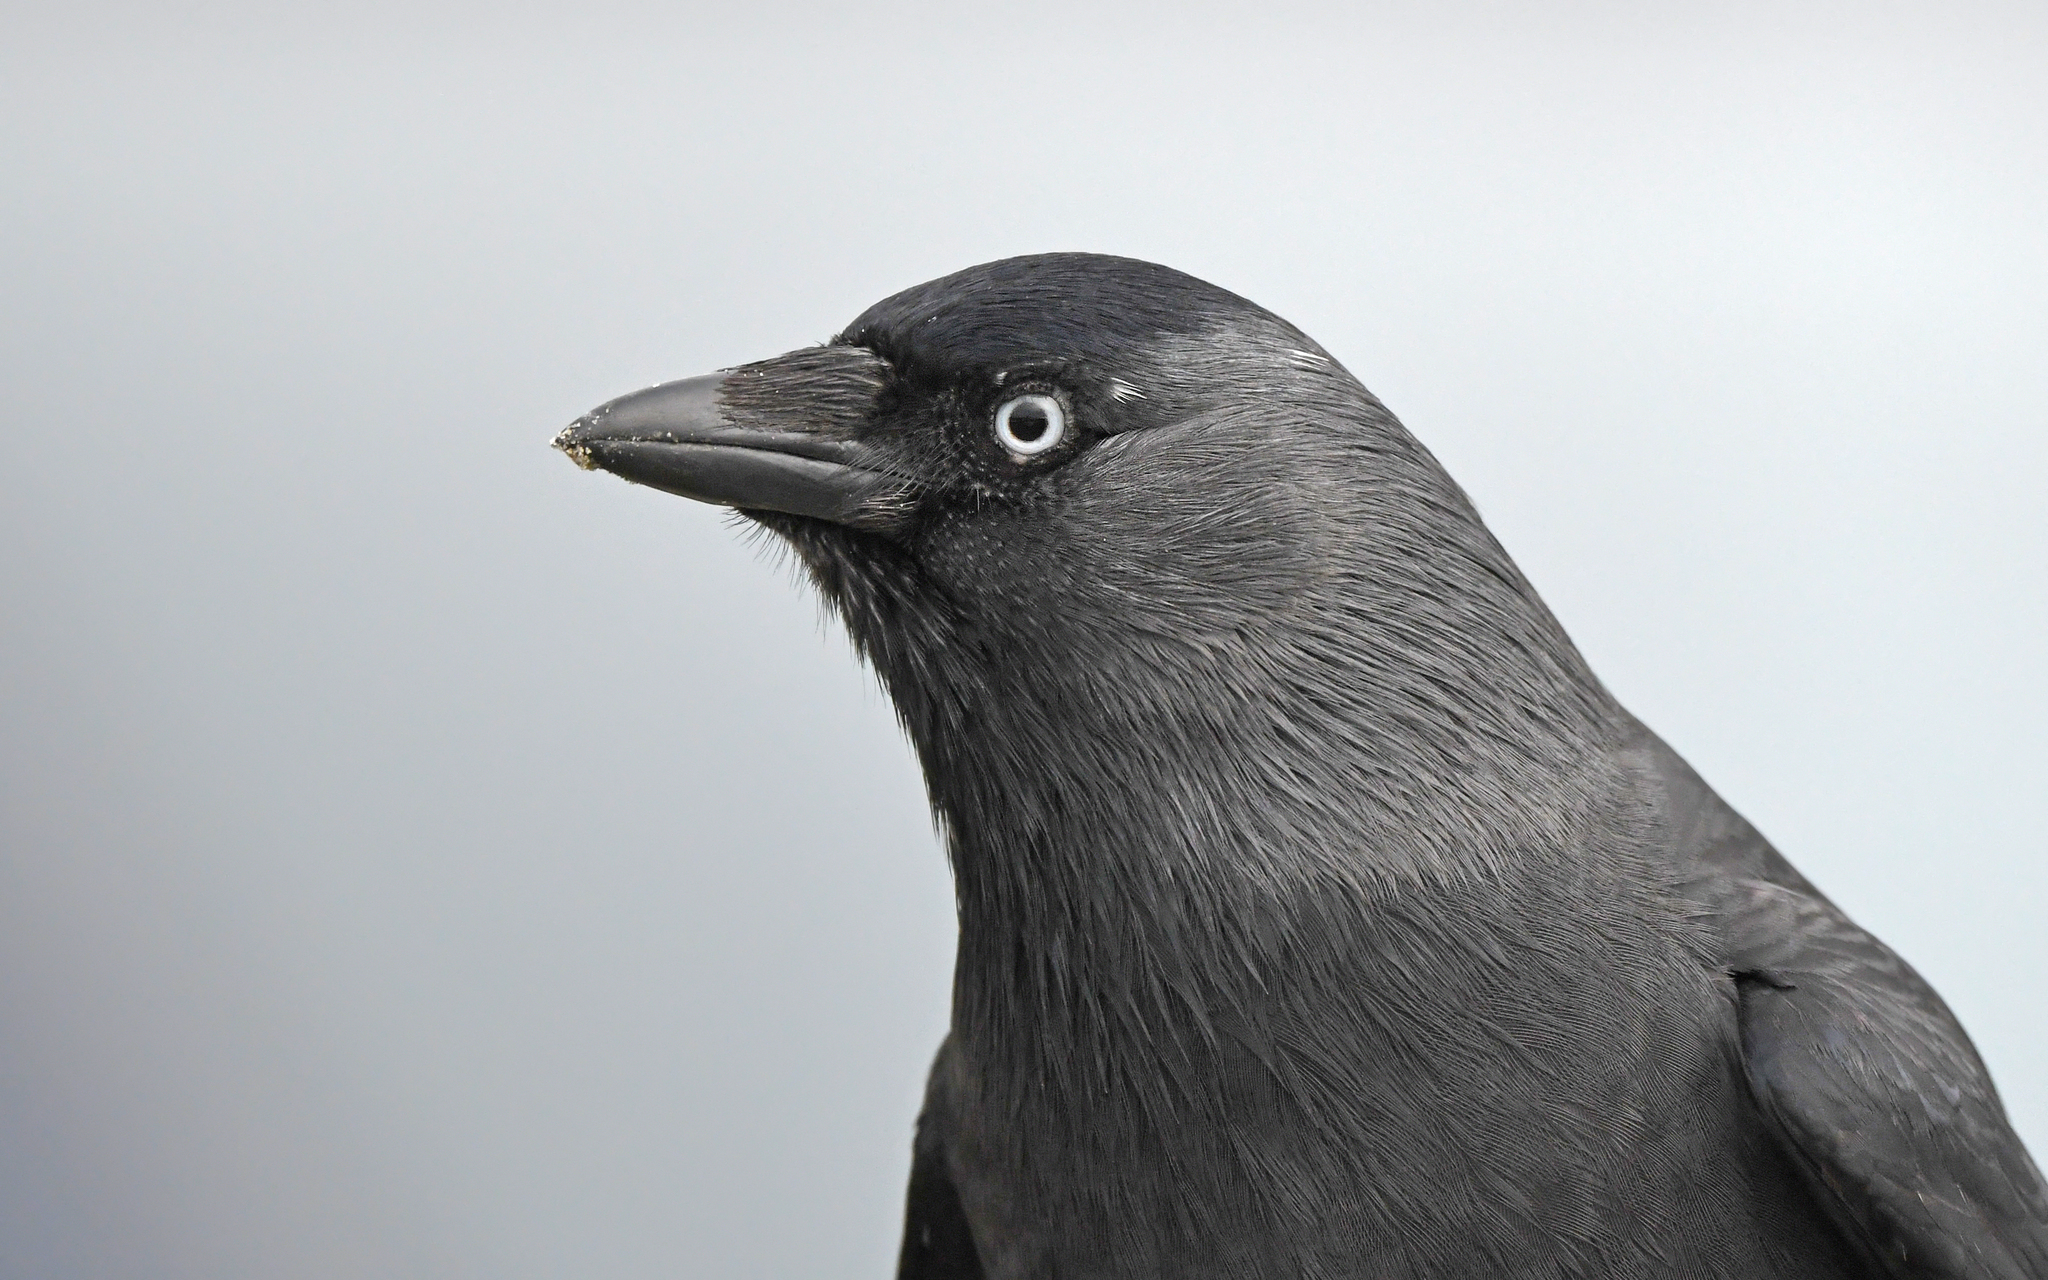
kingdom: Animalia
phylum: Chordata
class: Aves
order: Passeriformes
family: Corvidae
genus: Coloeus
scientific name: Coloeus monedula
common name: Western jackdaw
